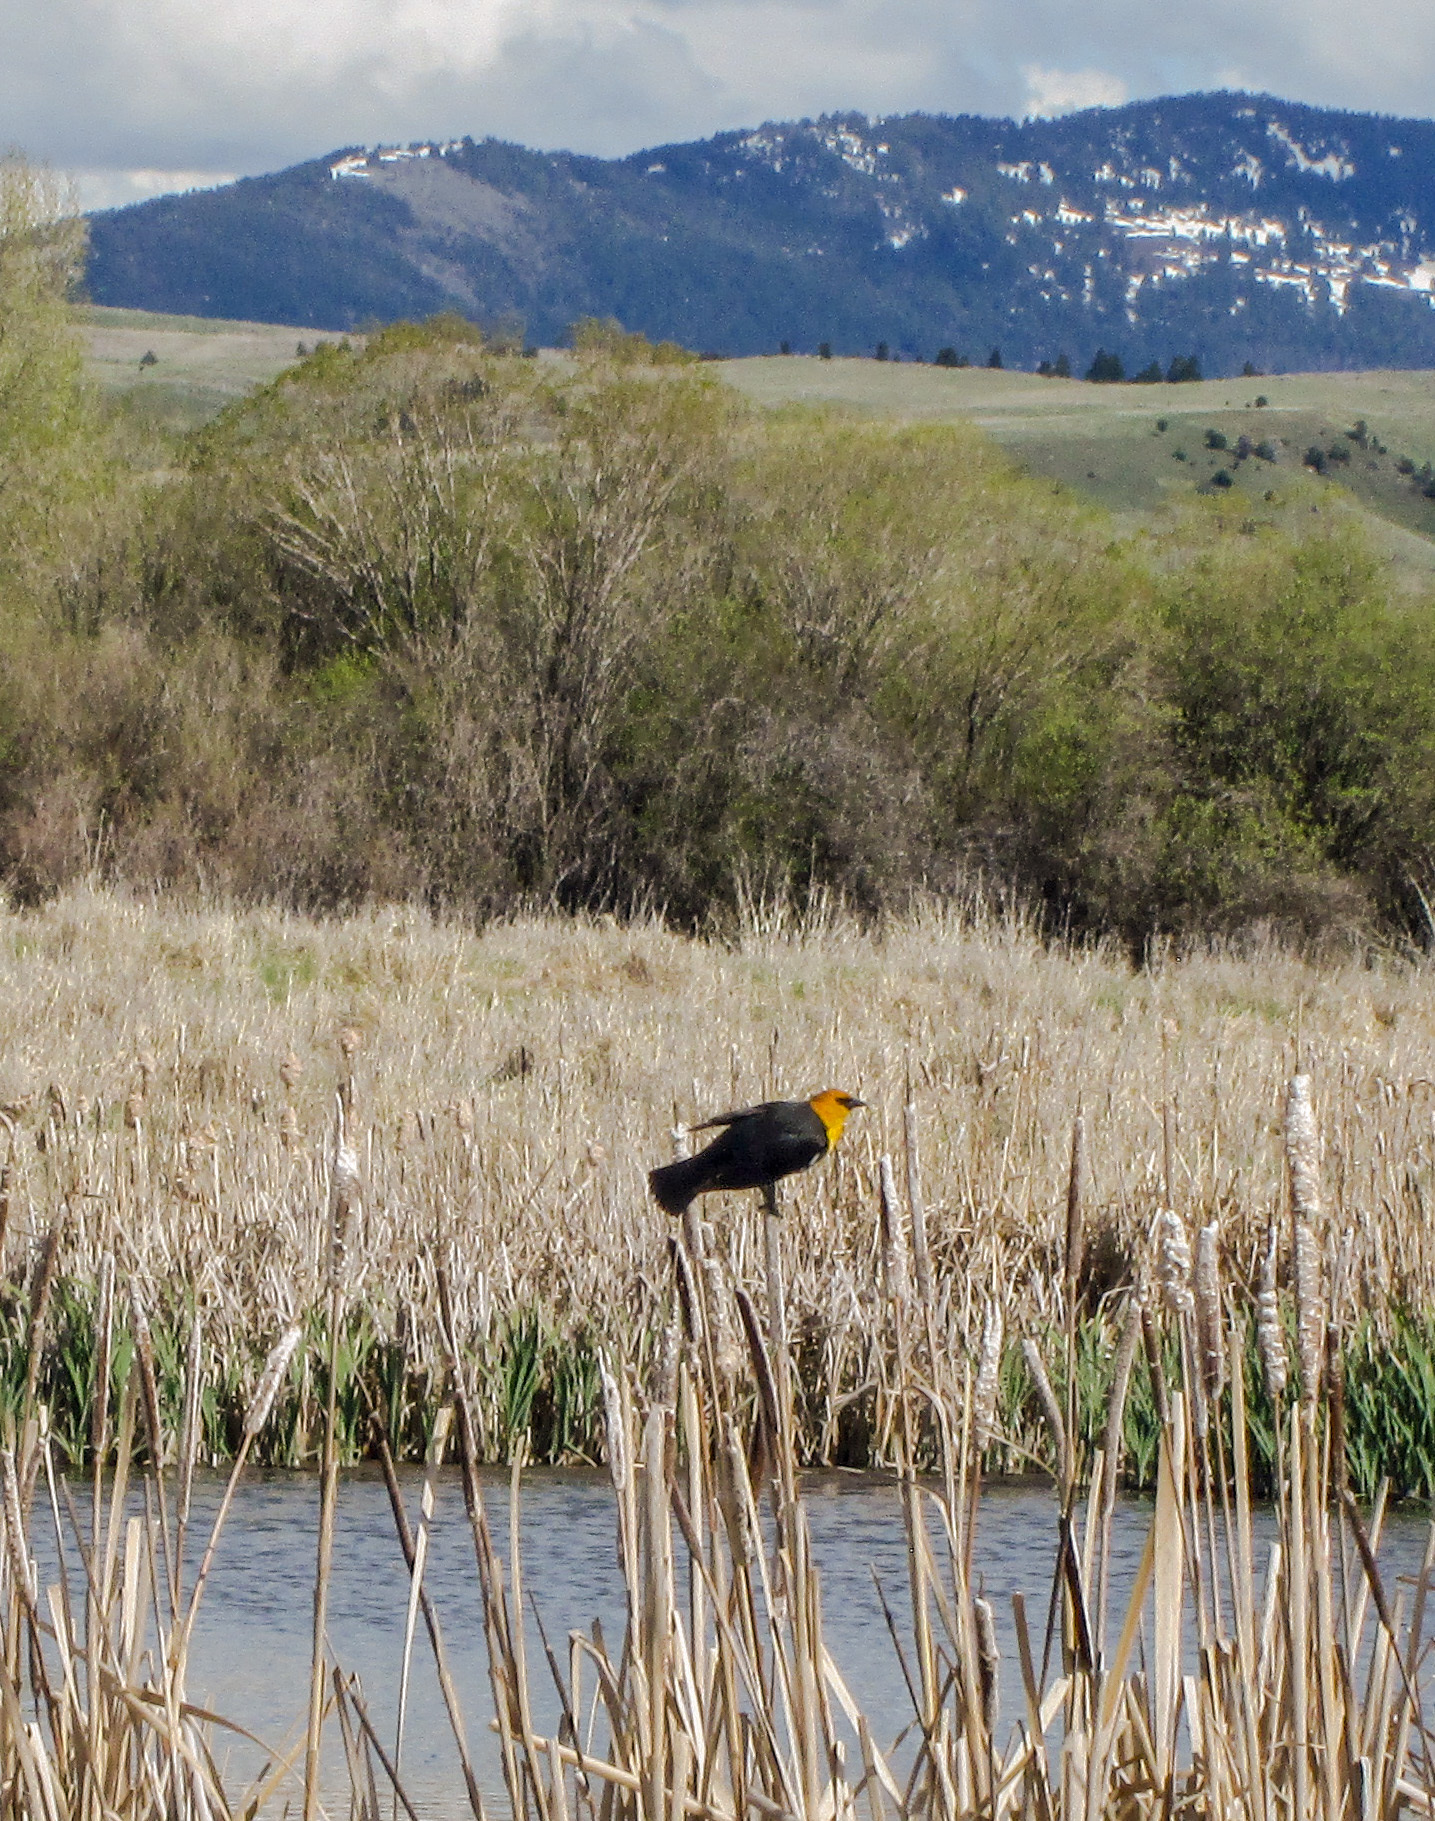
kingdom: Animalia
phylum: Chordata
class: Aves
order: Passeriformes
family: Icteridae
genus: Xanthocephalus
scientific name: Xanthocephalus xanthocephalus
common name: Yellow-headed blackbird
